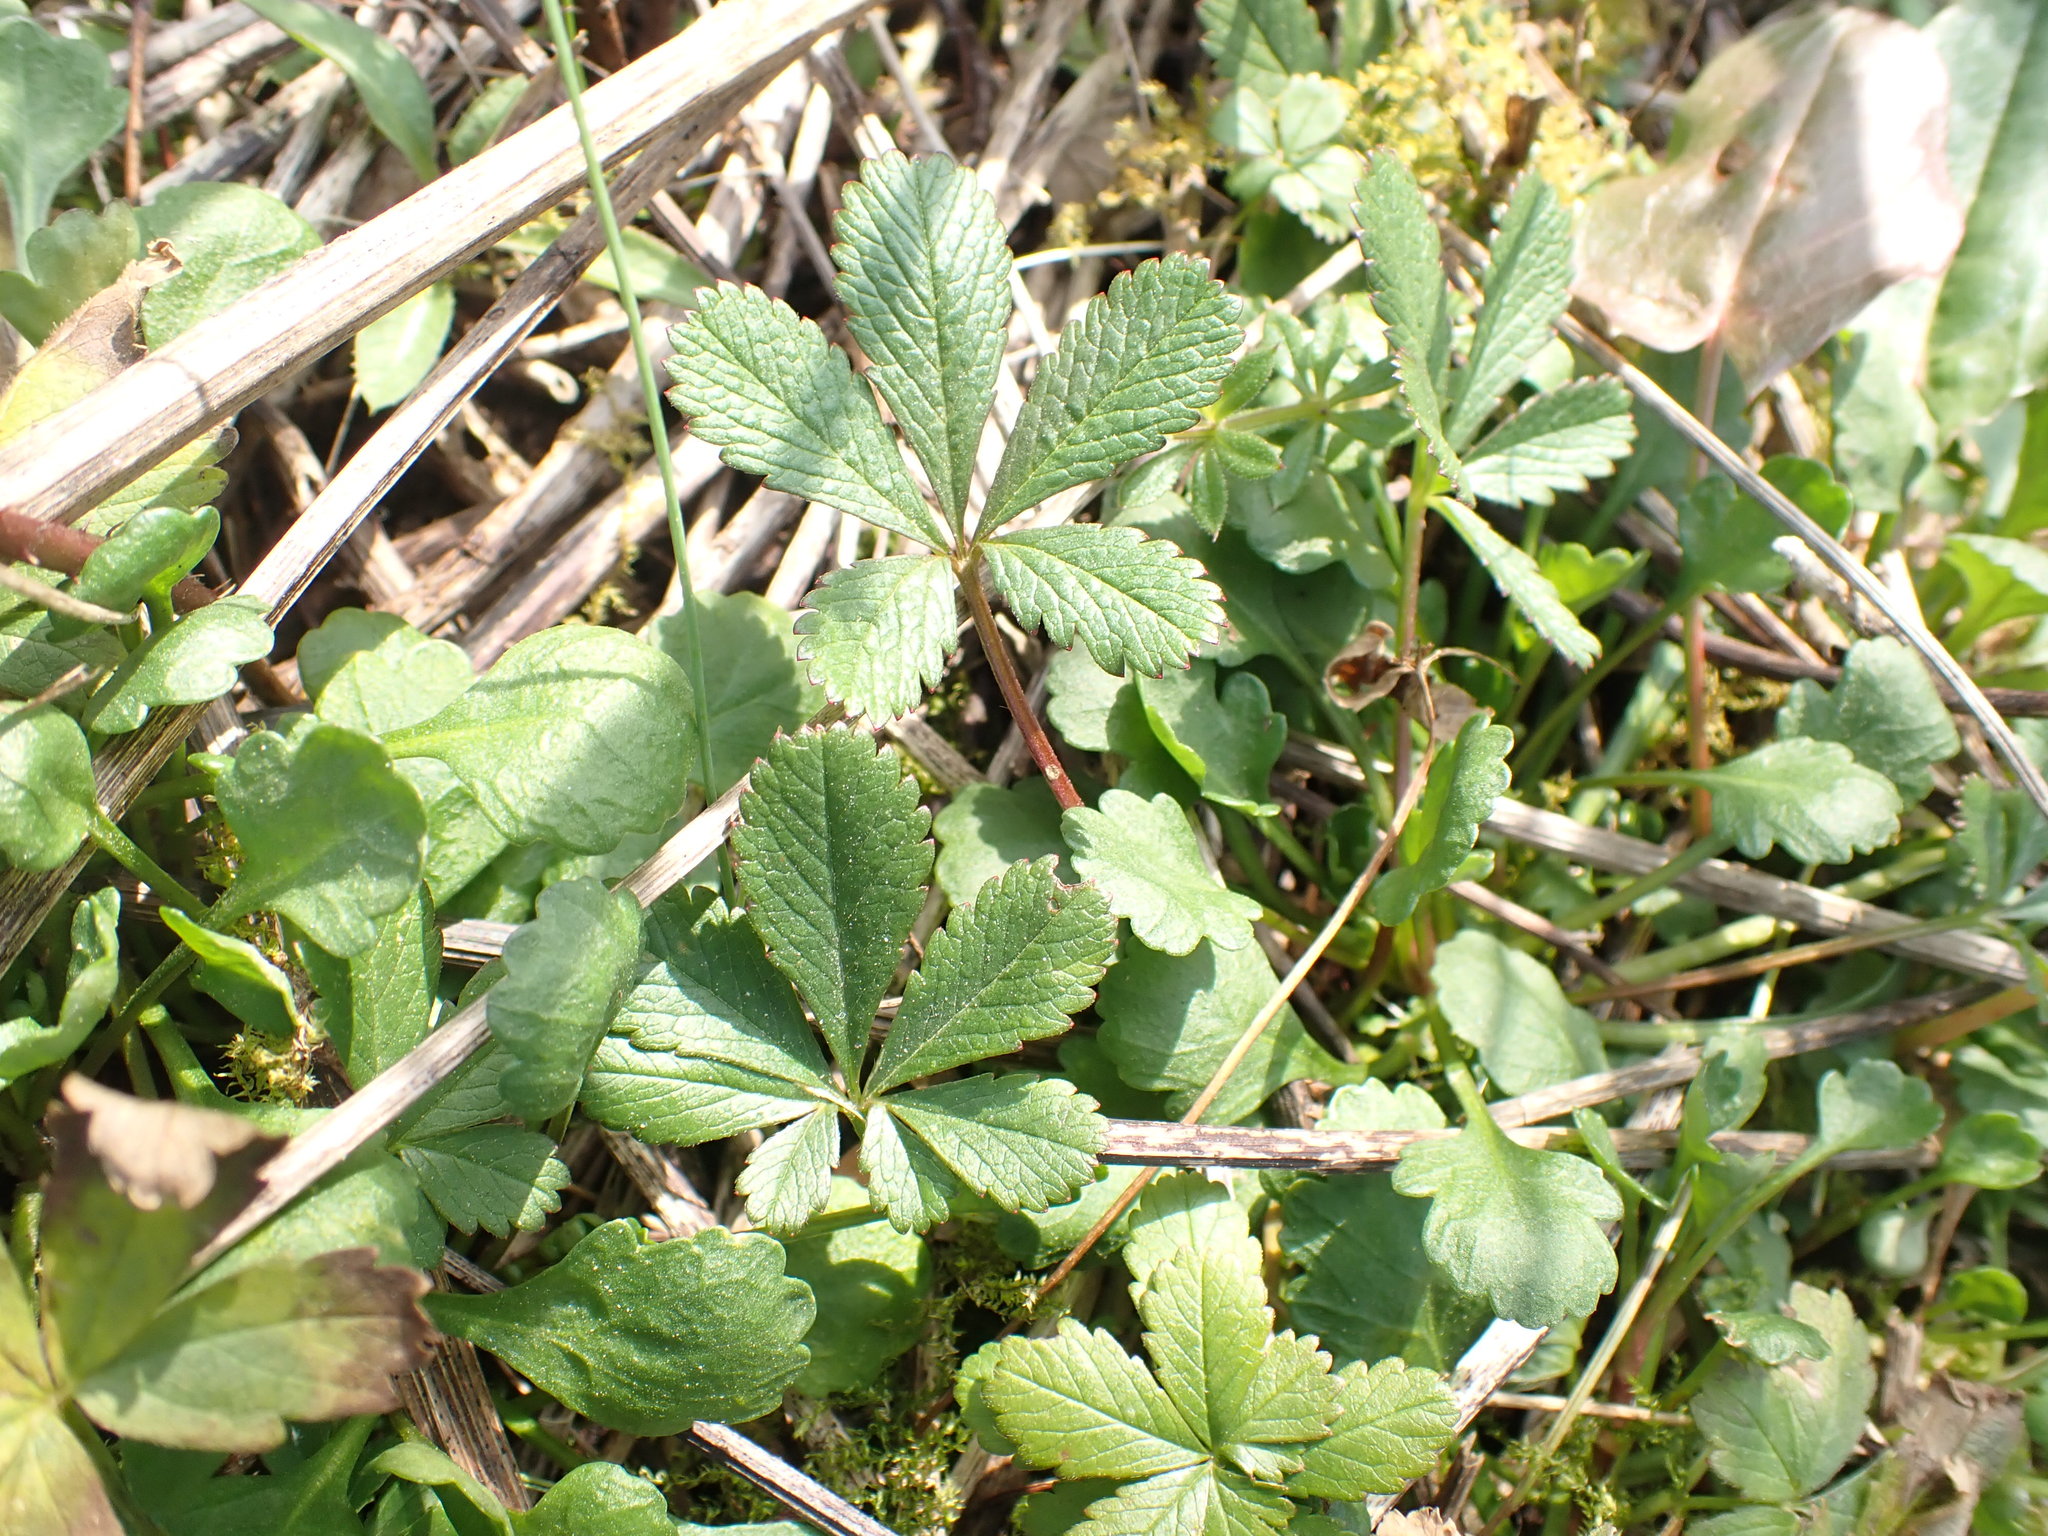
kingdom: Plantae
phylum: Tracheophyta
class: Magnoliopsida
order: Rosales
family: Rosaceae
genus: Potentilla
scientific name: Potentilla reptans
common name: Creeping cinquefoil
